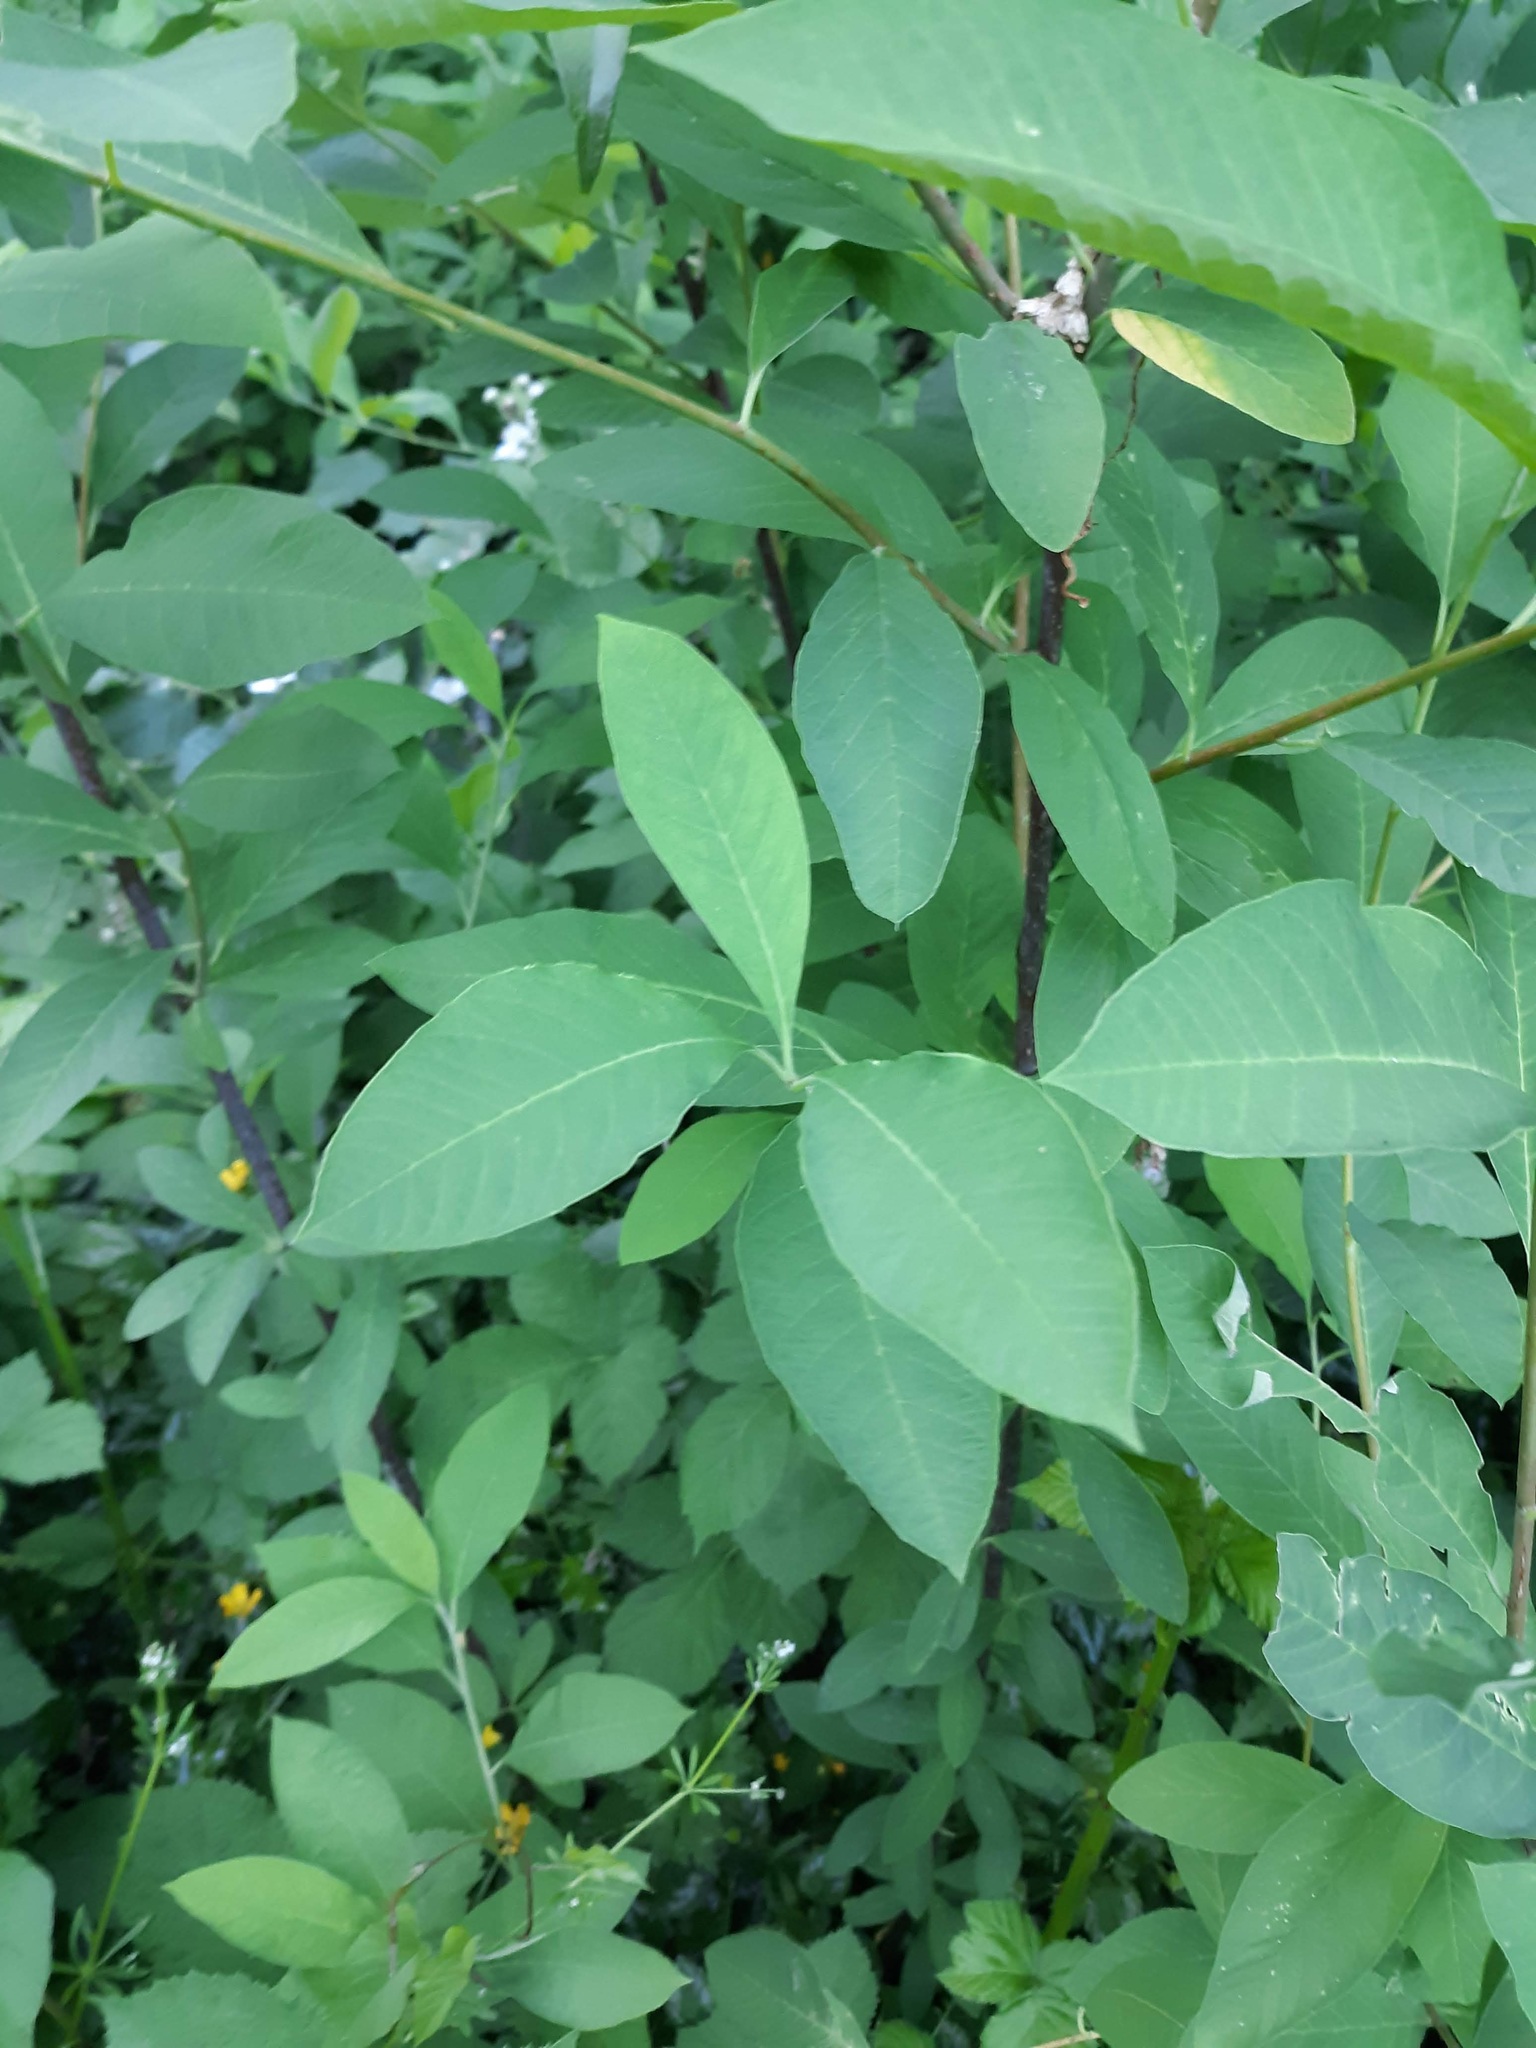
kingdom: Plantae
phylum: Tracheophyta
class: Magnoliopsida
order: Rosales
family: Rosaceae
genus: Oemleria
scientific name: Oemleria cerasiformis
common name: Osoberry
